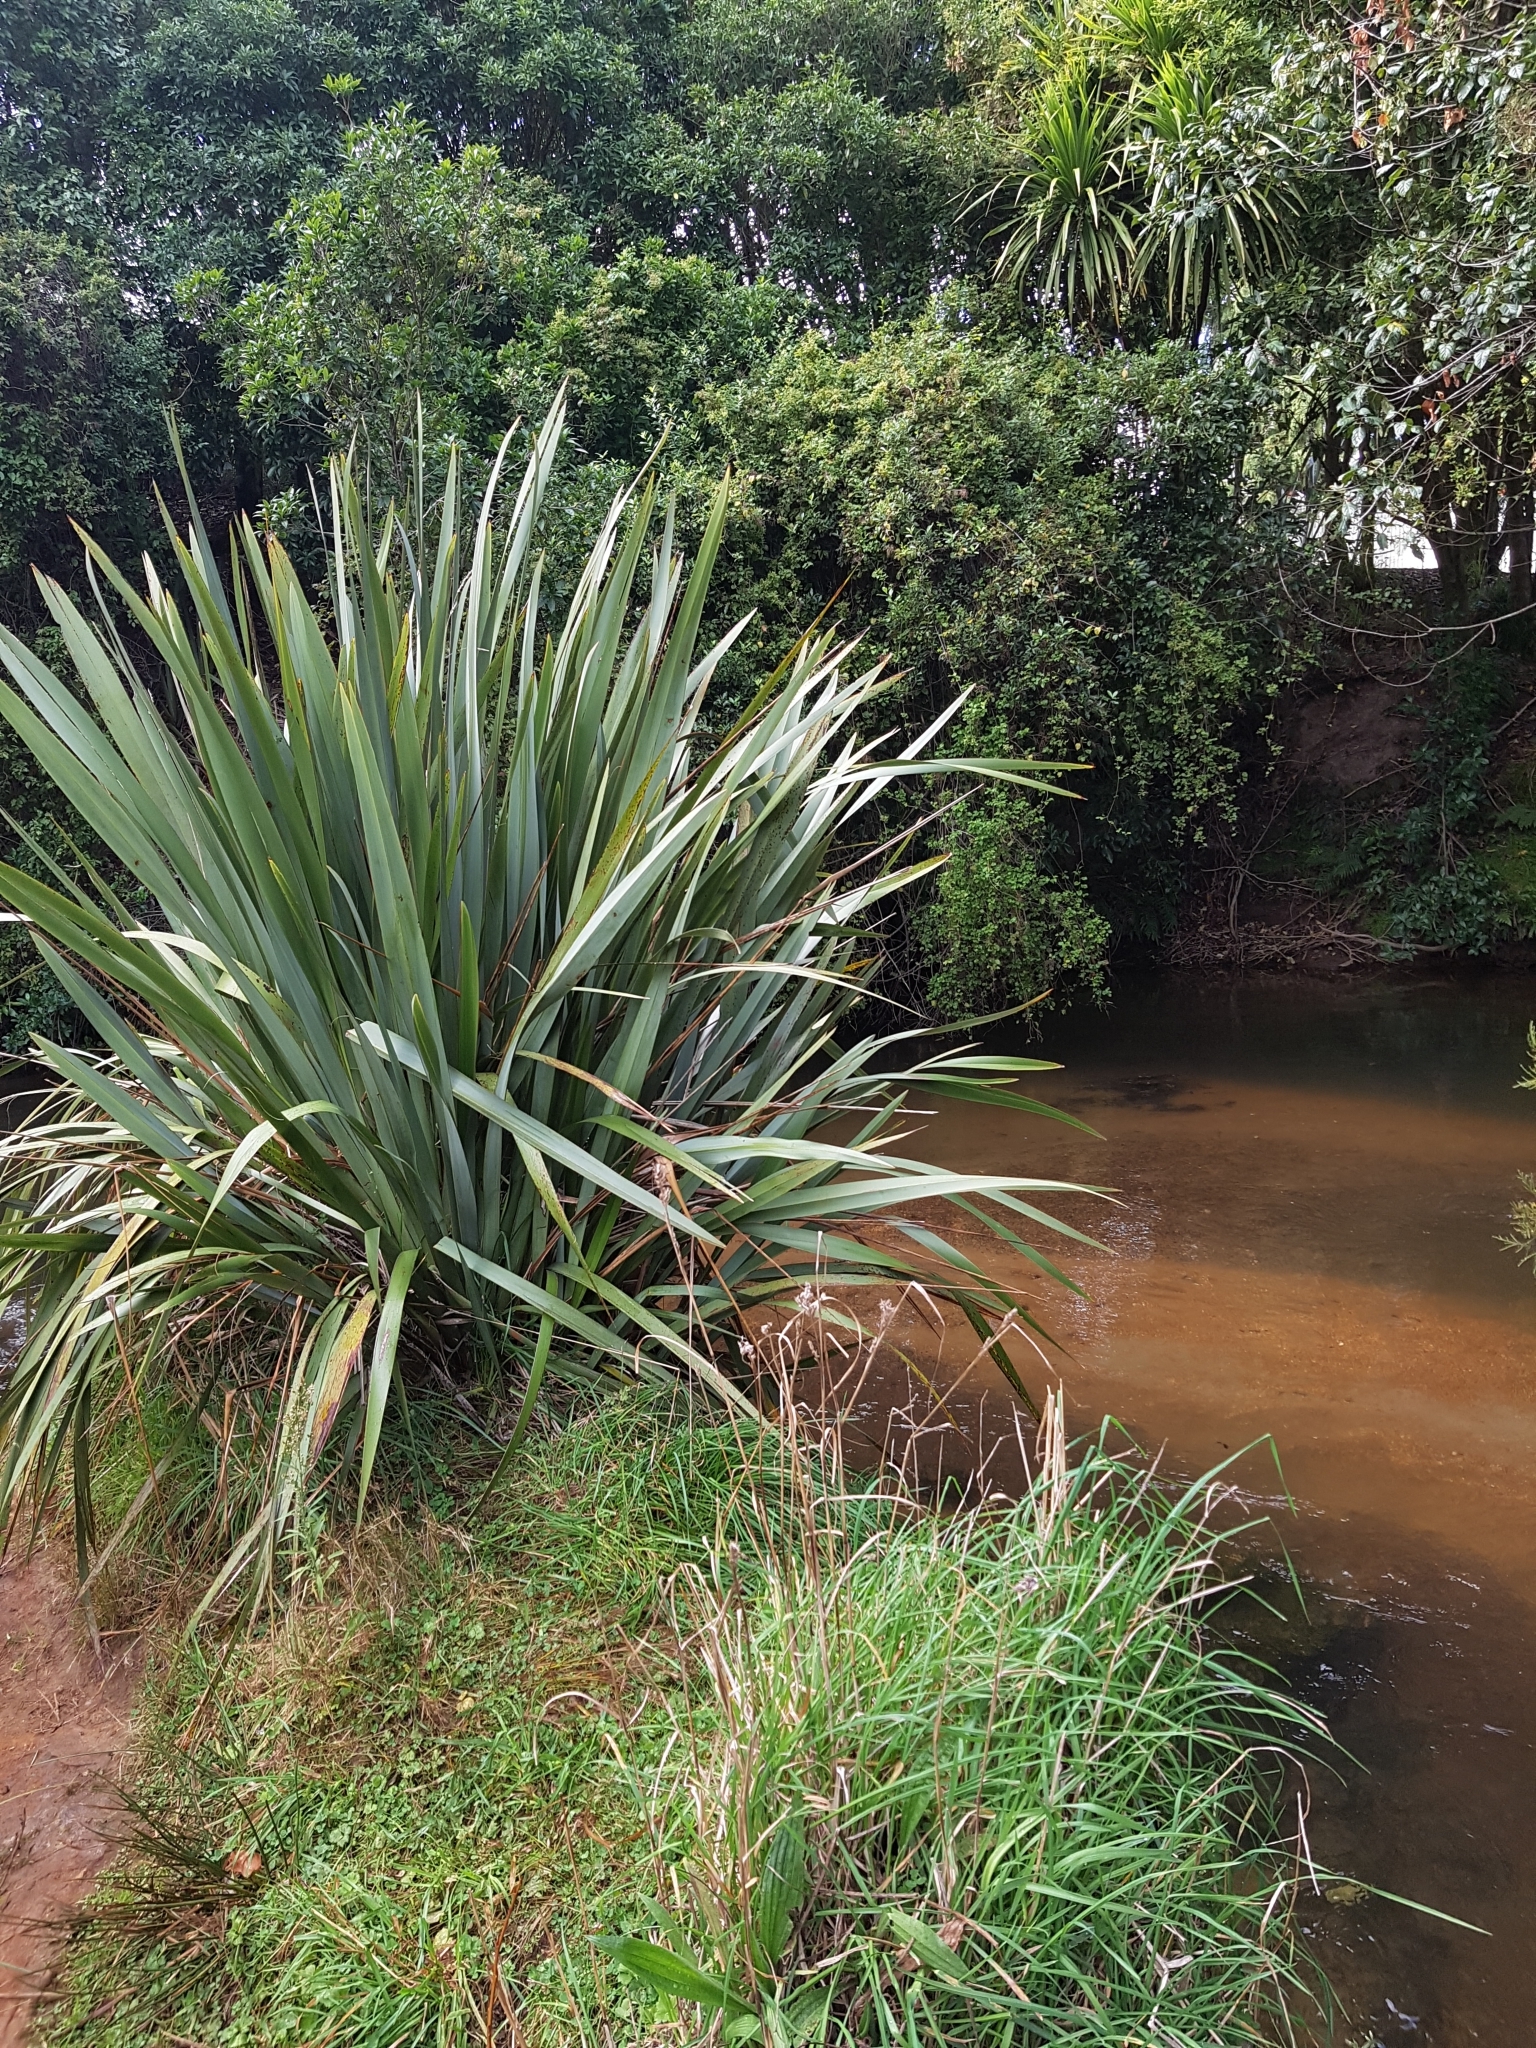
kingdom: Plantae
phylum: Tracheophyta
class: Liliopsida
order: Asparagales
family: Asphodelaceae
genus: Phormium
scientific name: Phormium tenax
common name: New zealand flax
